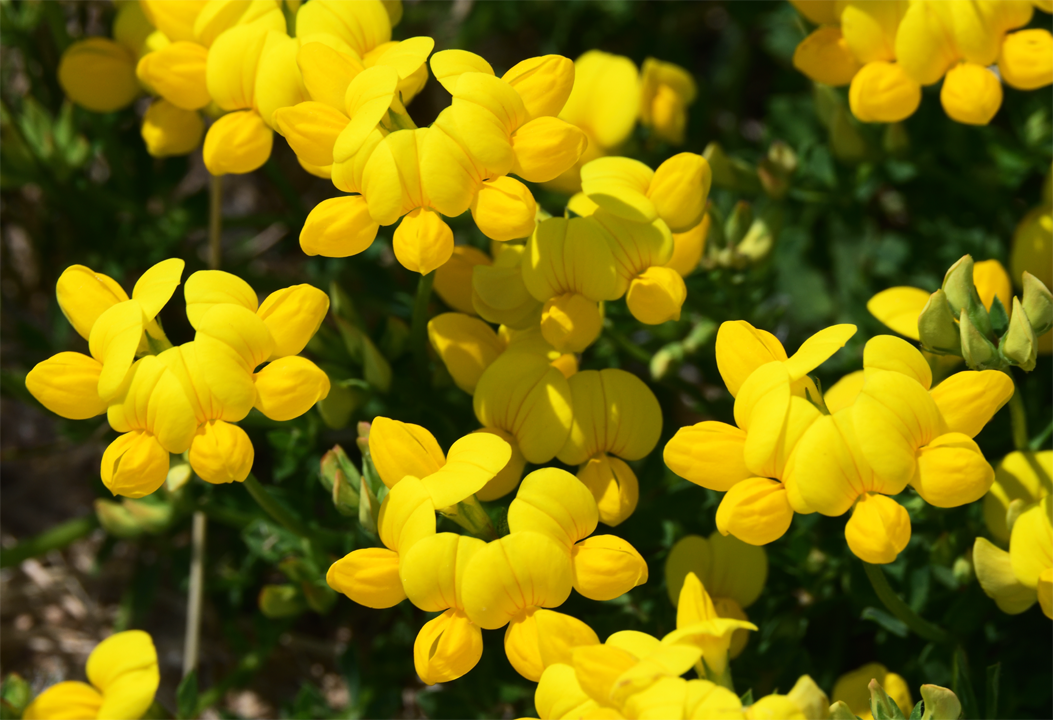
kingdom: Plantae
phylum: Tracheophyta
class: Magnoliopsida
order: Fabales
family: Fabaceae
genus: Lotus
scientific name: Lotus corniculatus
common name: Common bird's-foot-trefoil
